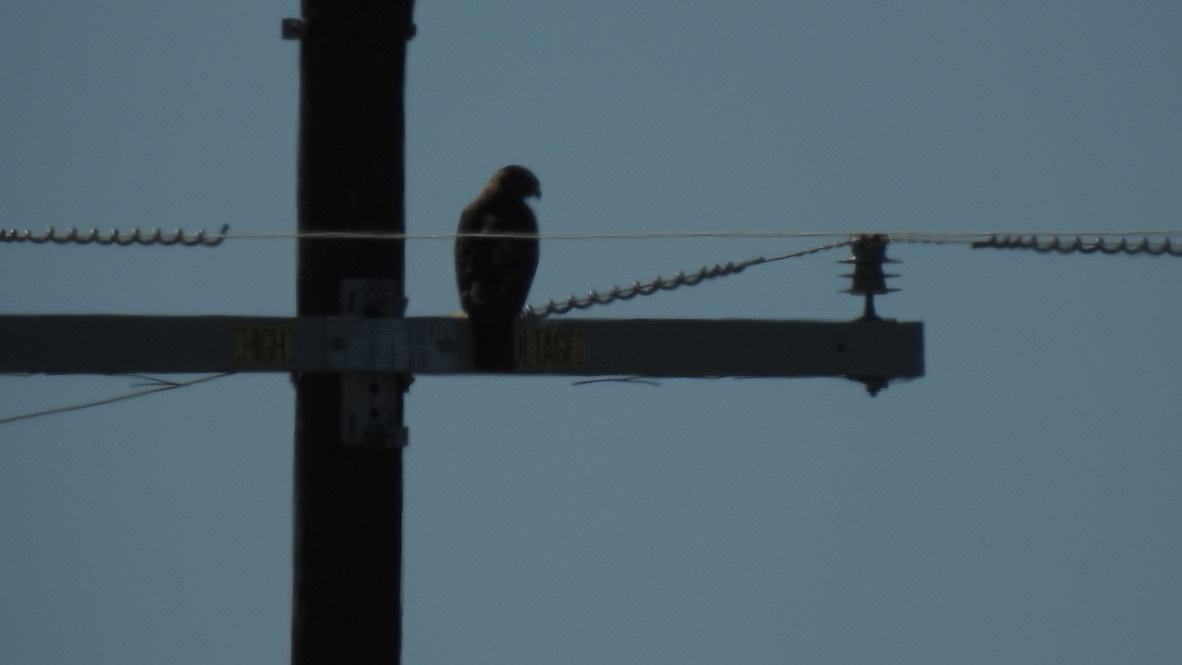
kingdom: Animalia
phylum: Chordata
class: Aves
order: Accipitriformes
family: Accipitridae
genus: Buteo
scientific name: Buteo jamaicensis
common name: Red-tailed hawk
